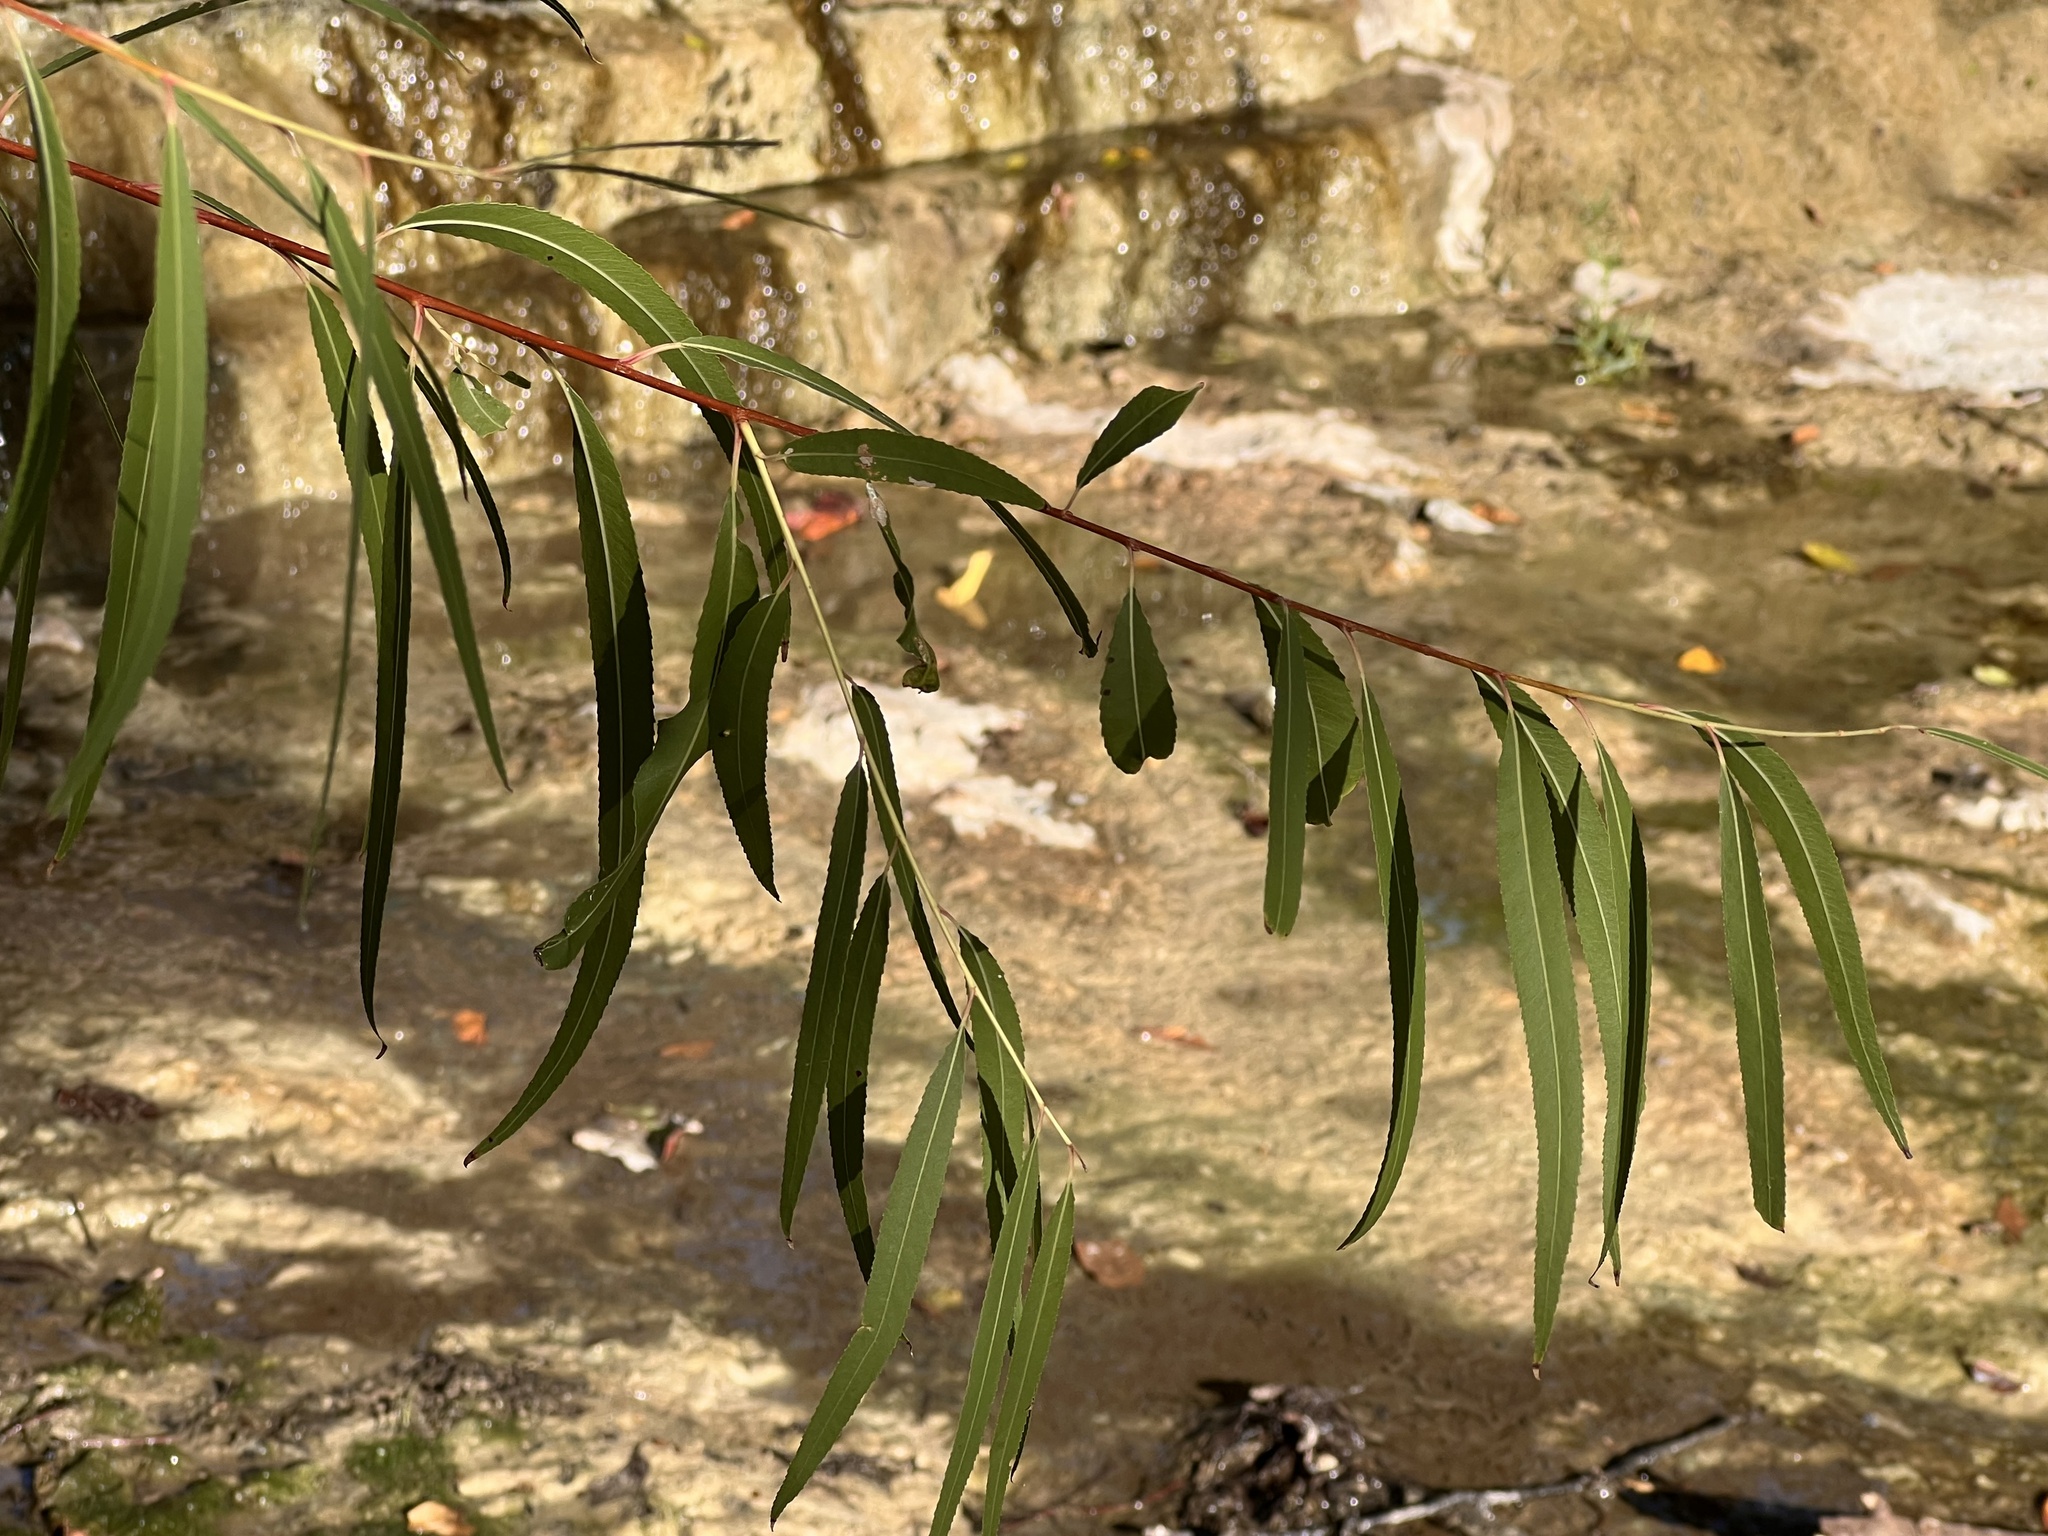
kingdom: Plantae
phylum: Tracheophyta
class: Magnoliopsida
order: Malpighiales
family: Salicaceae
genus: Salix
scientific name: Salix nigra
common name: Black willow
